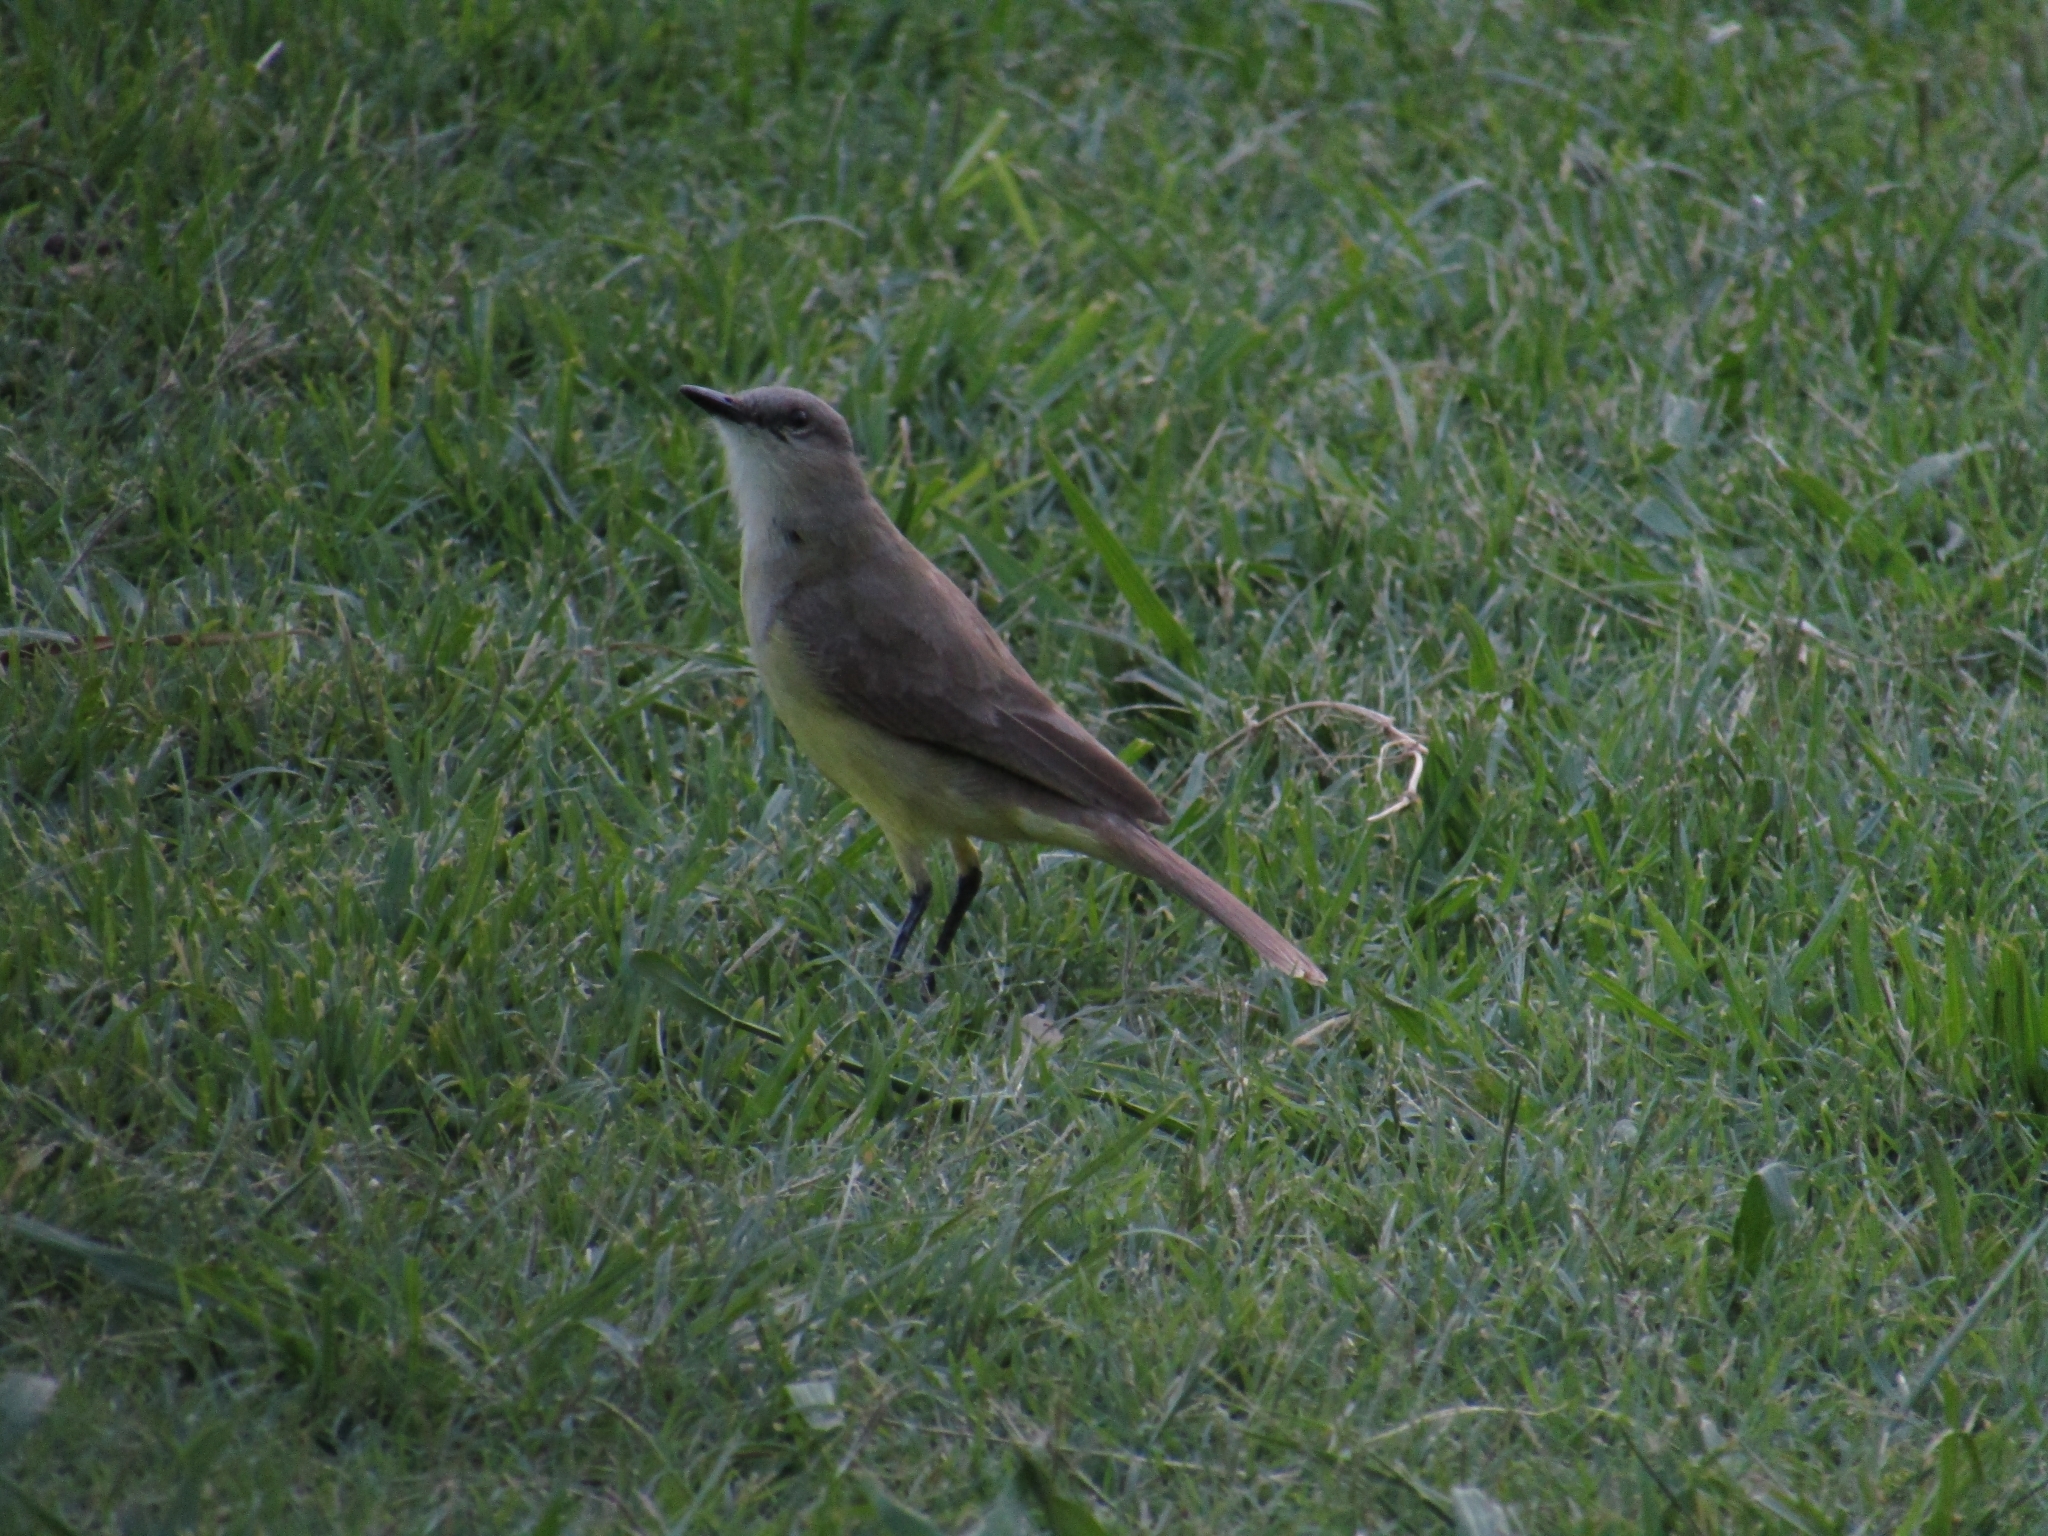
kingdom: Animalia
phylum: Chordata
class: Aves
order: Passeriformes
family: Tyrannidae
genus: Machetornis
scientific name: Machetornis rixosa
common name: Cattle tyrant
